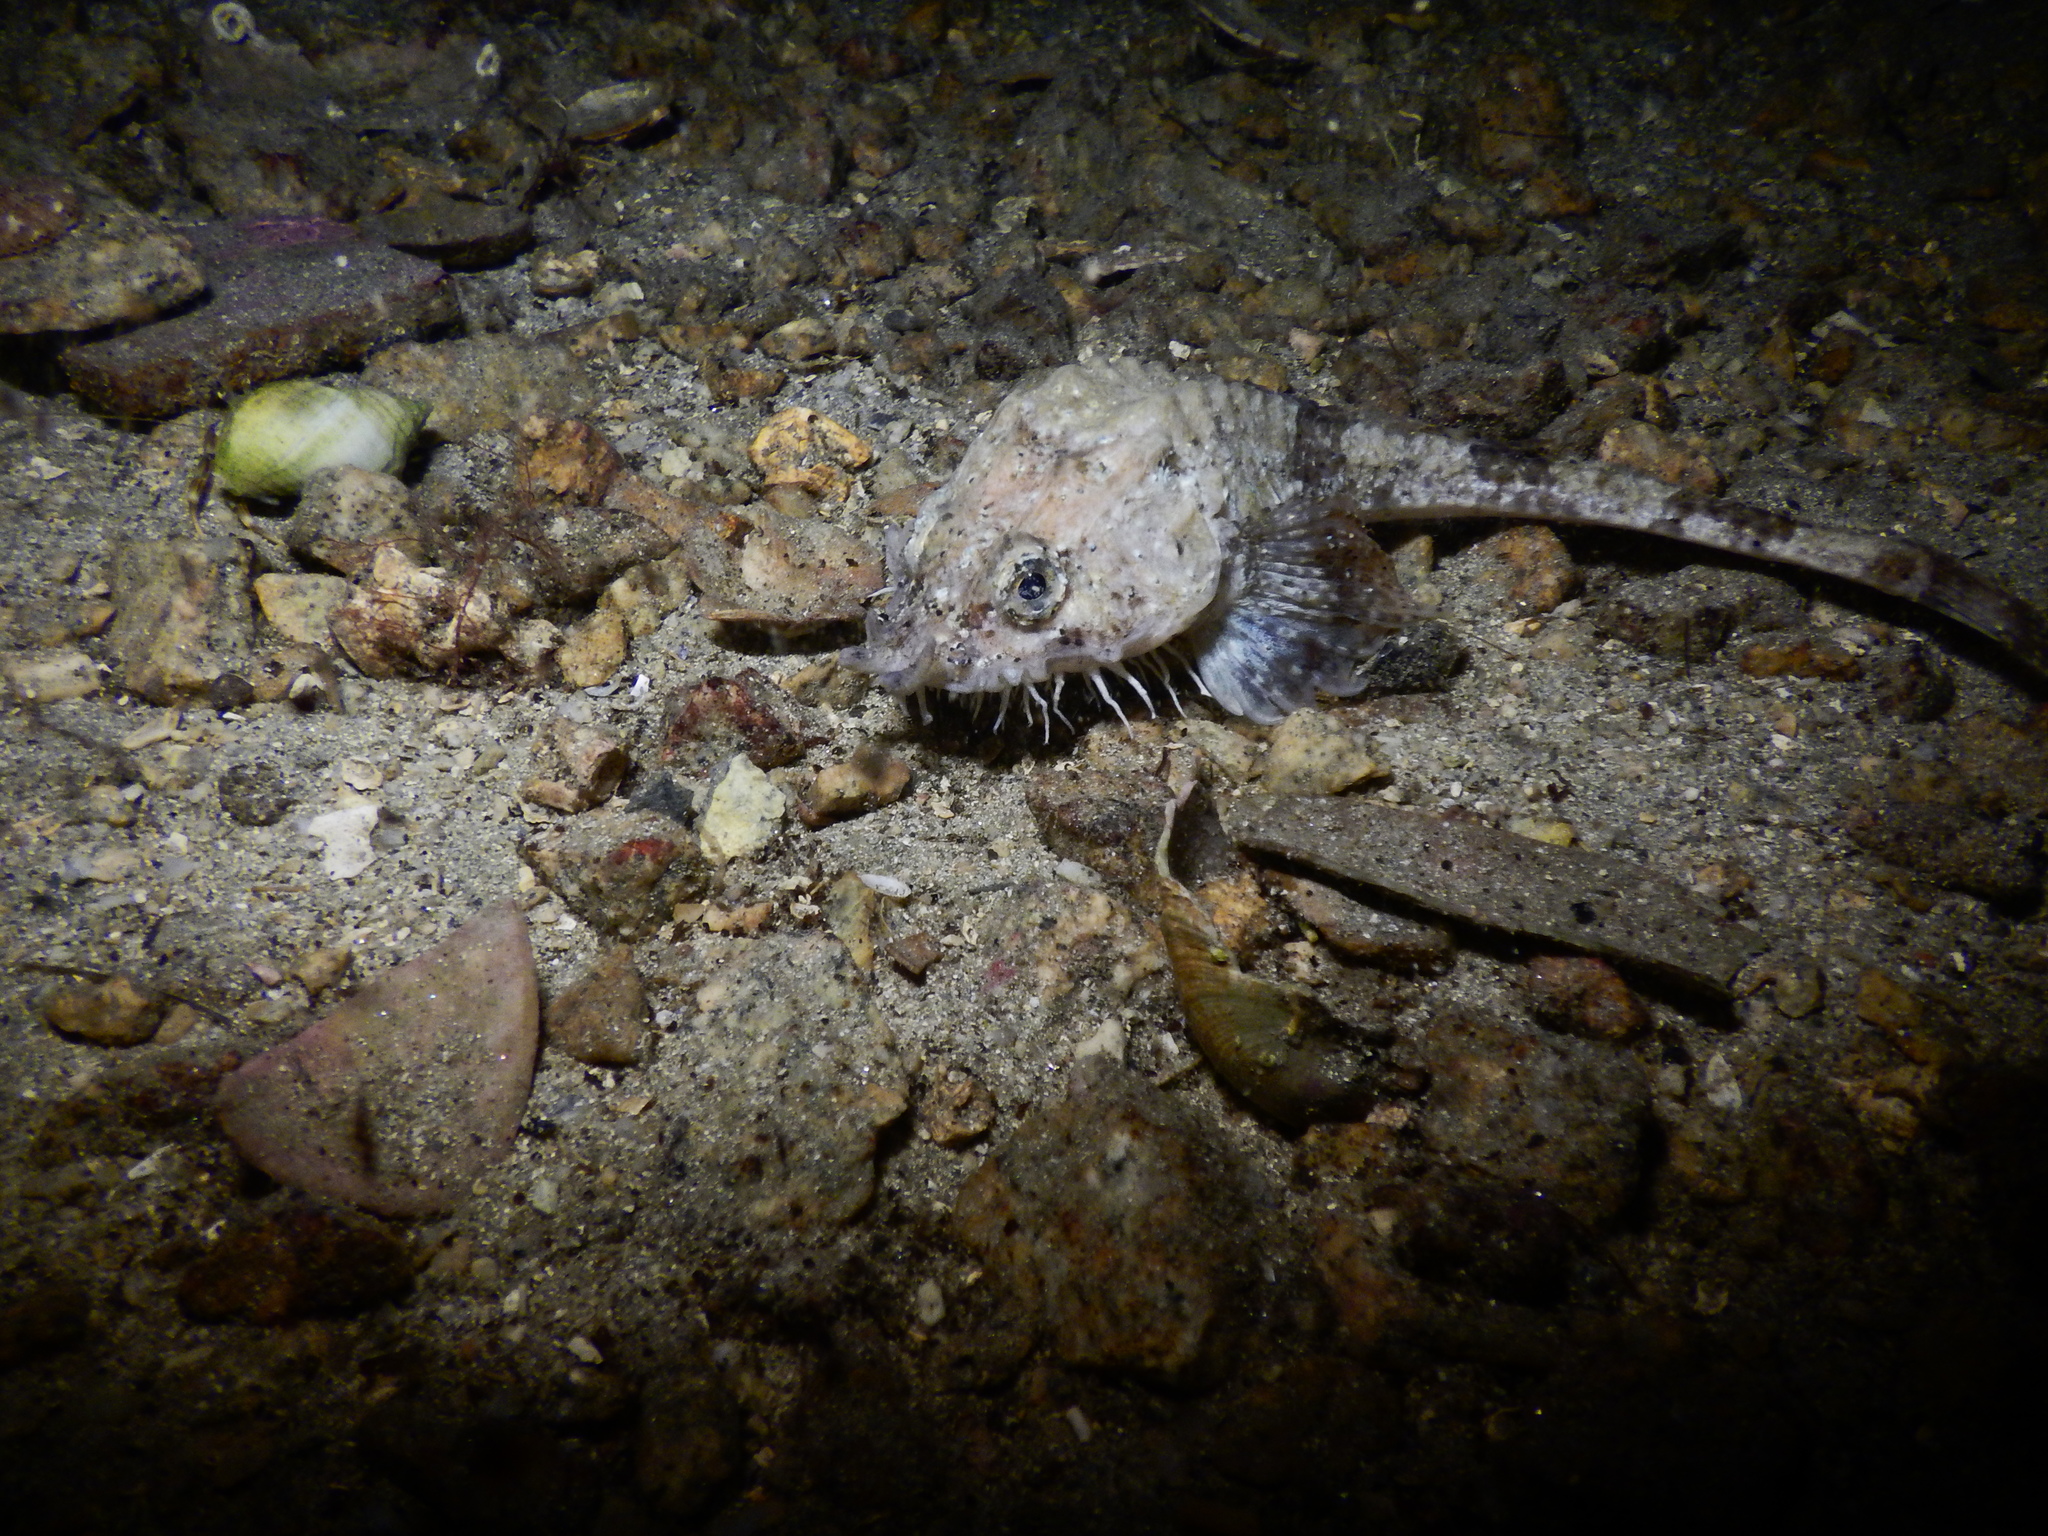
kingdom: Animalia
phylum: Chordata
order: Scorpaeniformes
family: Agonidae
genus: Agonus
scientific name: Agonus cataphractus
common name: Pogge
